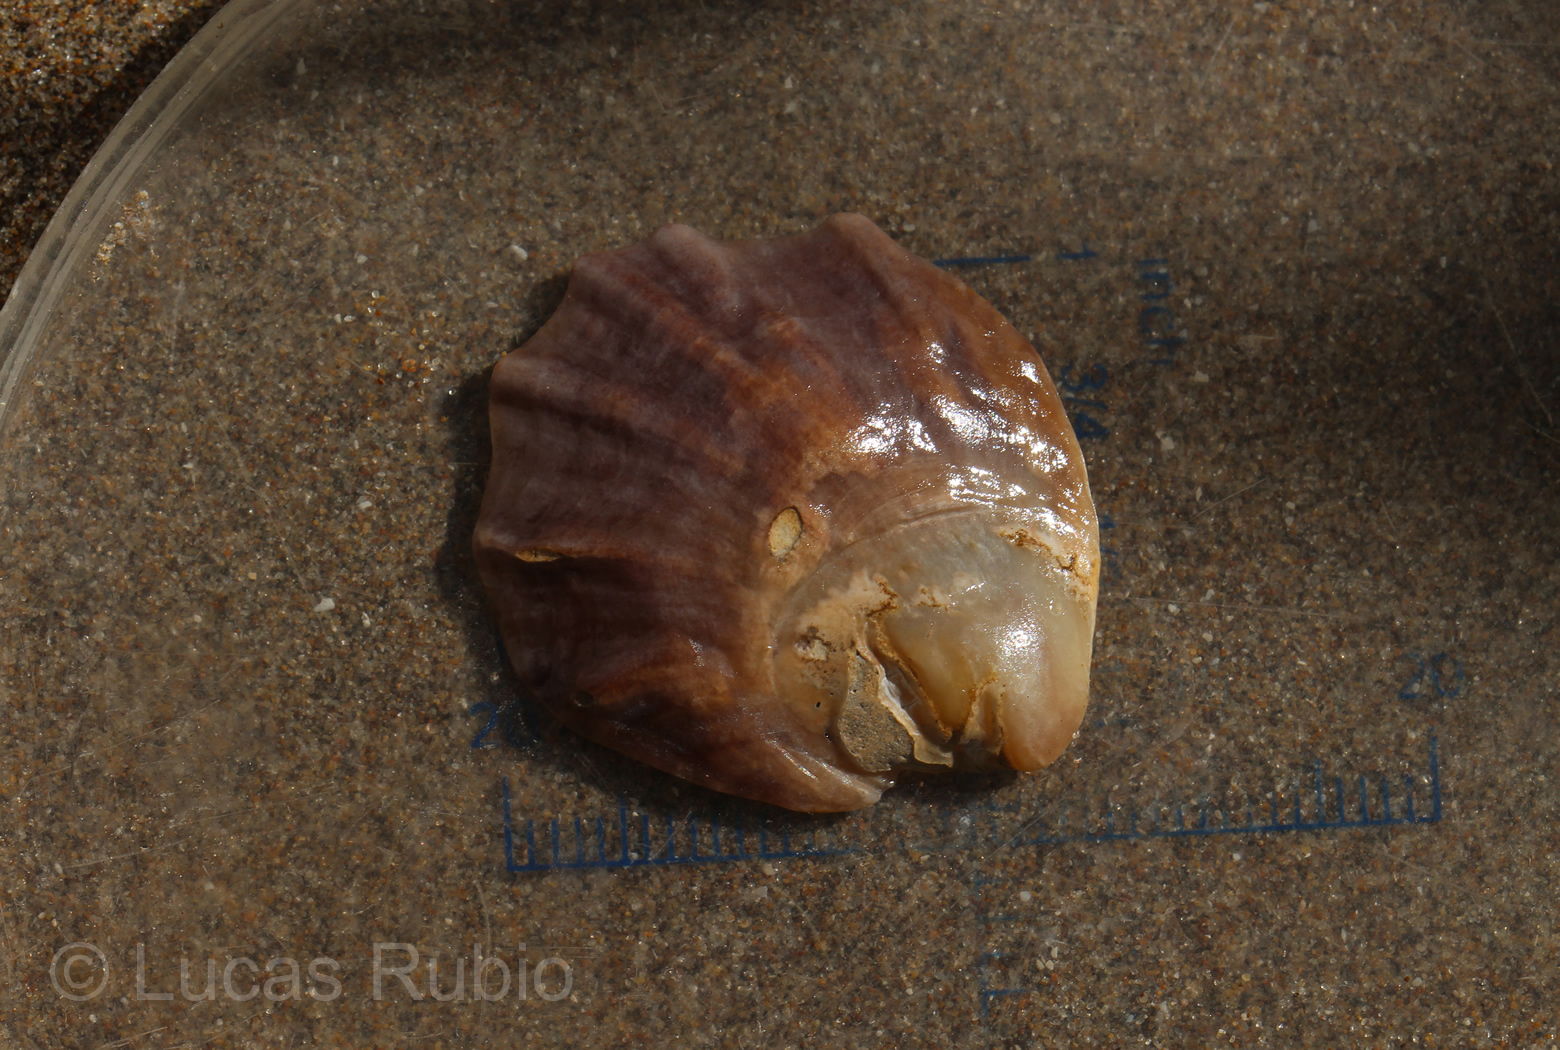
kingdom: Animalia
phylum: Mollusca
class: Bivalvia
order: Ostreida
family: Ostreidae
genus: Ostrea
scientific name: Ostrea puelchana
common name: Argentine flat oyster
